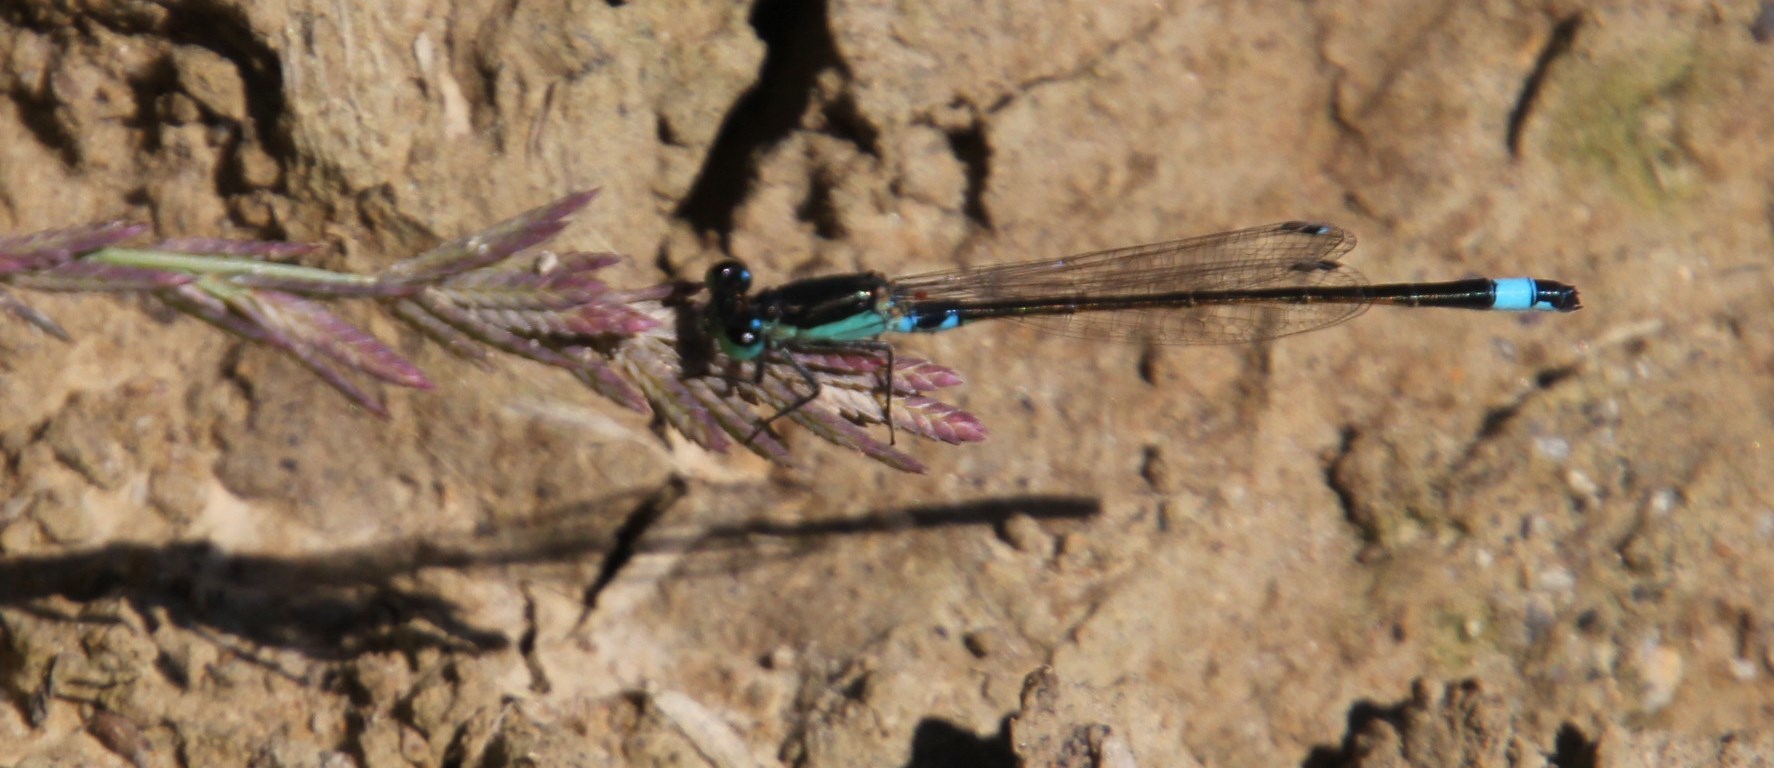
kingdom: Animalia
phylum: Arthropoda
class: Insecta
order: Odonata
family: Coenagrionidae
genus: Ischnura
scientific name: Ischnura senegalensis
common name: Tropical bluetail
